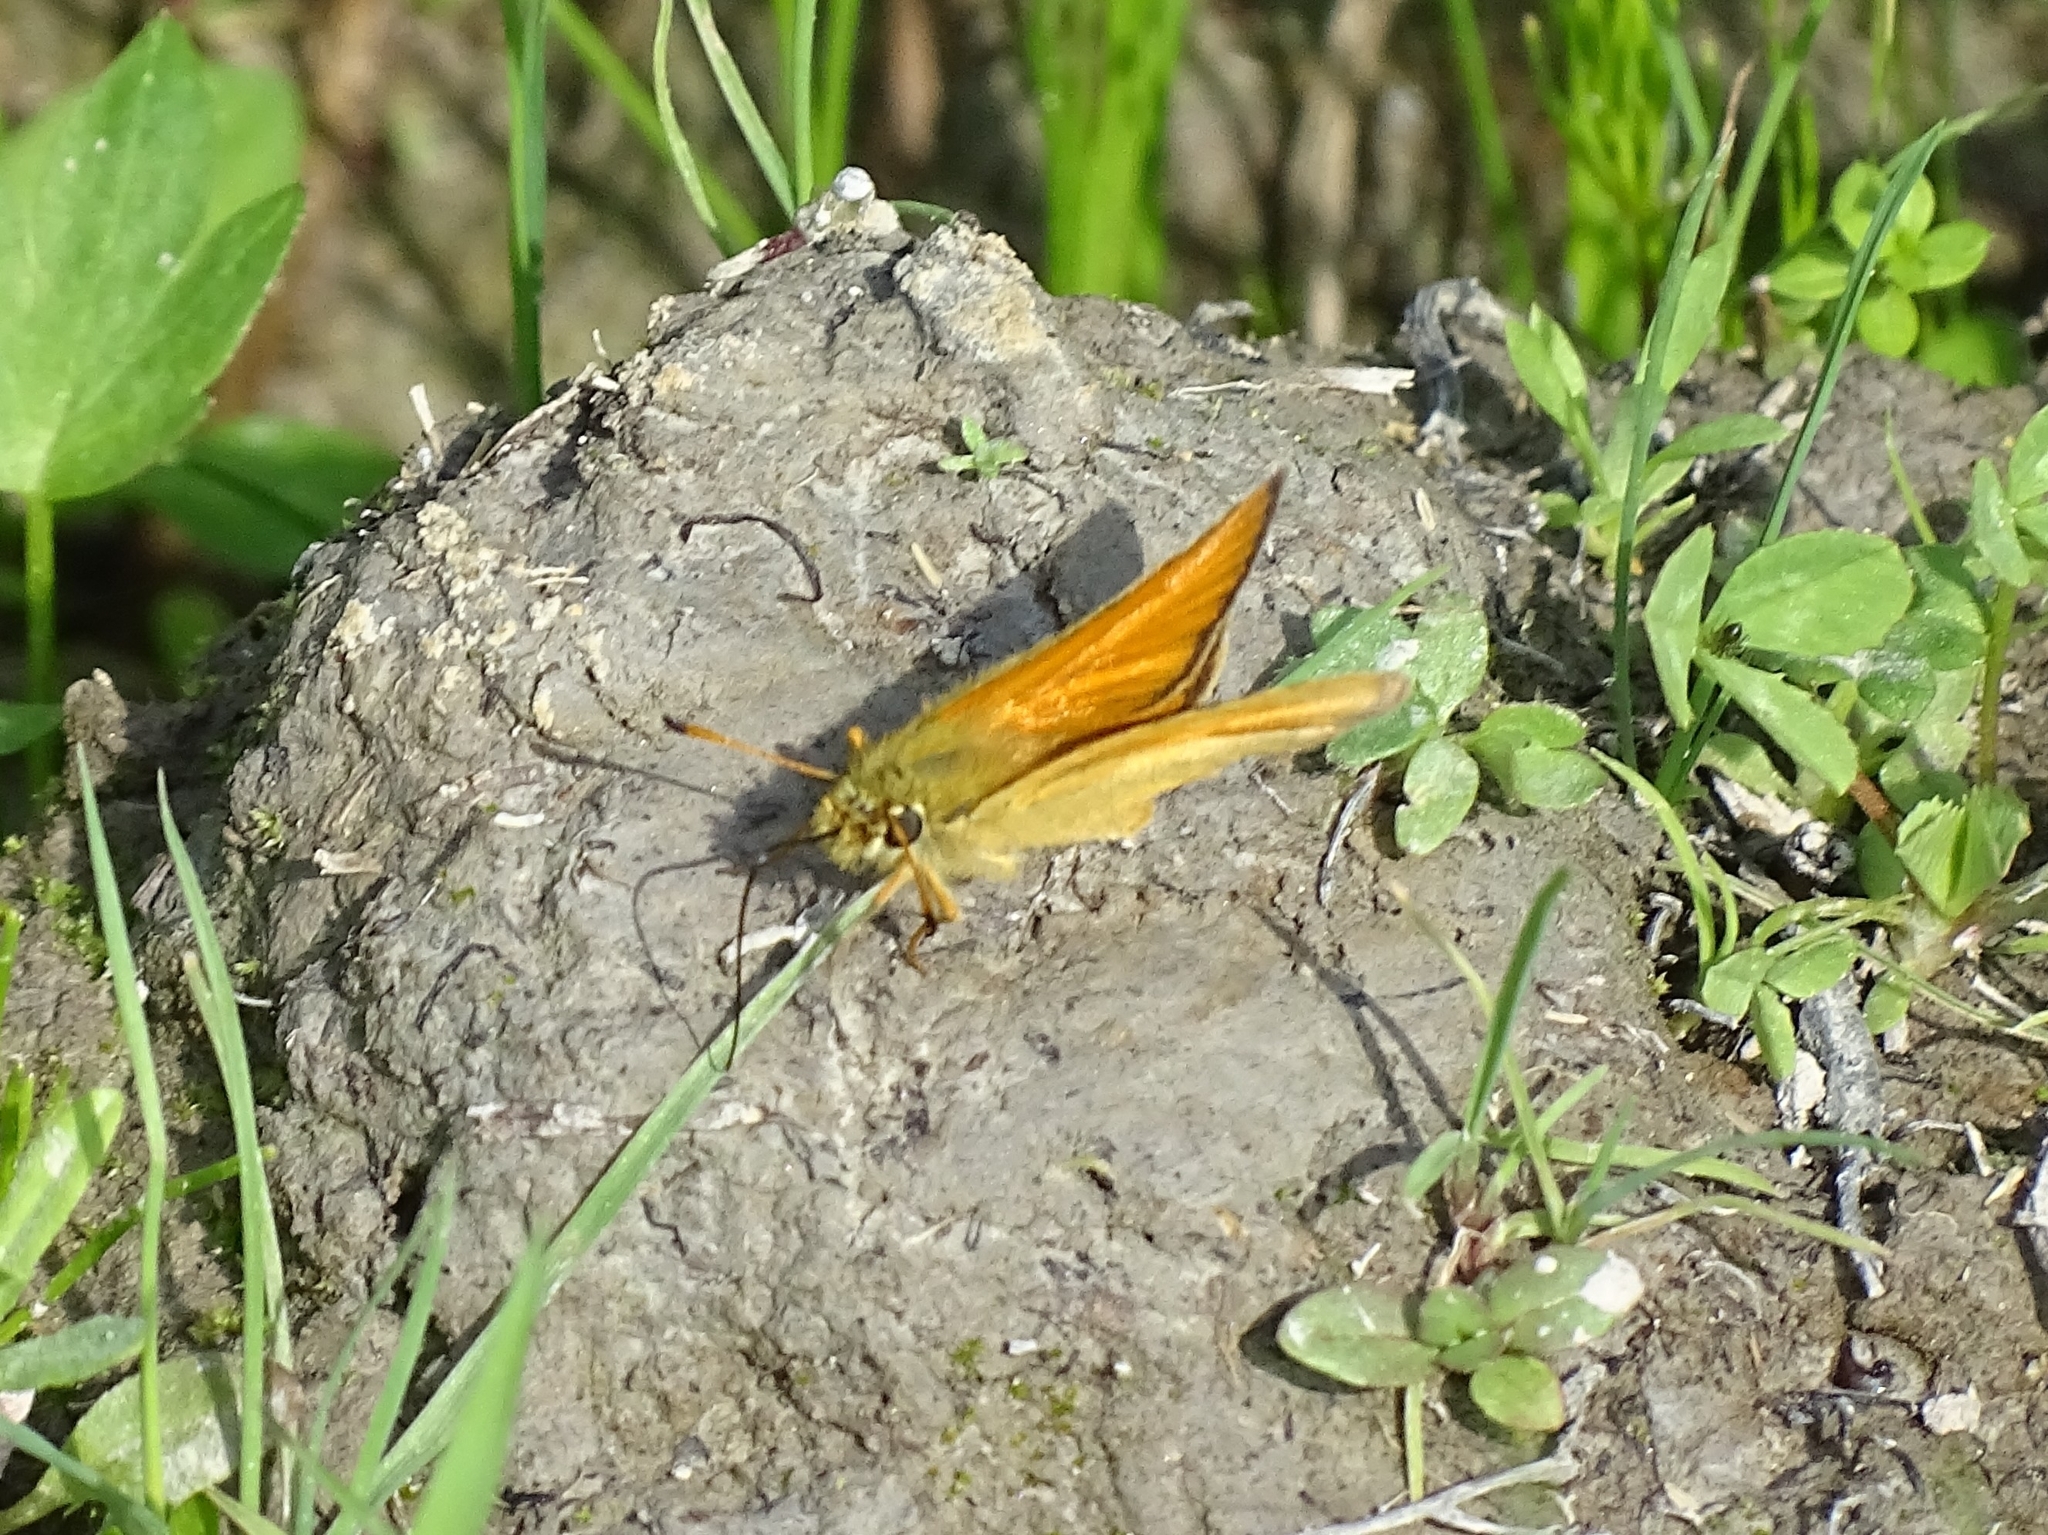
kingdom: Animalia
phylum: Arthropoda
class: Insecta
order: Lepidoptera
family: Hesperiidae
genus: Thymelicus
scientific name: Thymelicus lineola
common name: Essex skipper
